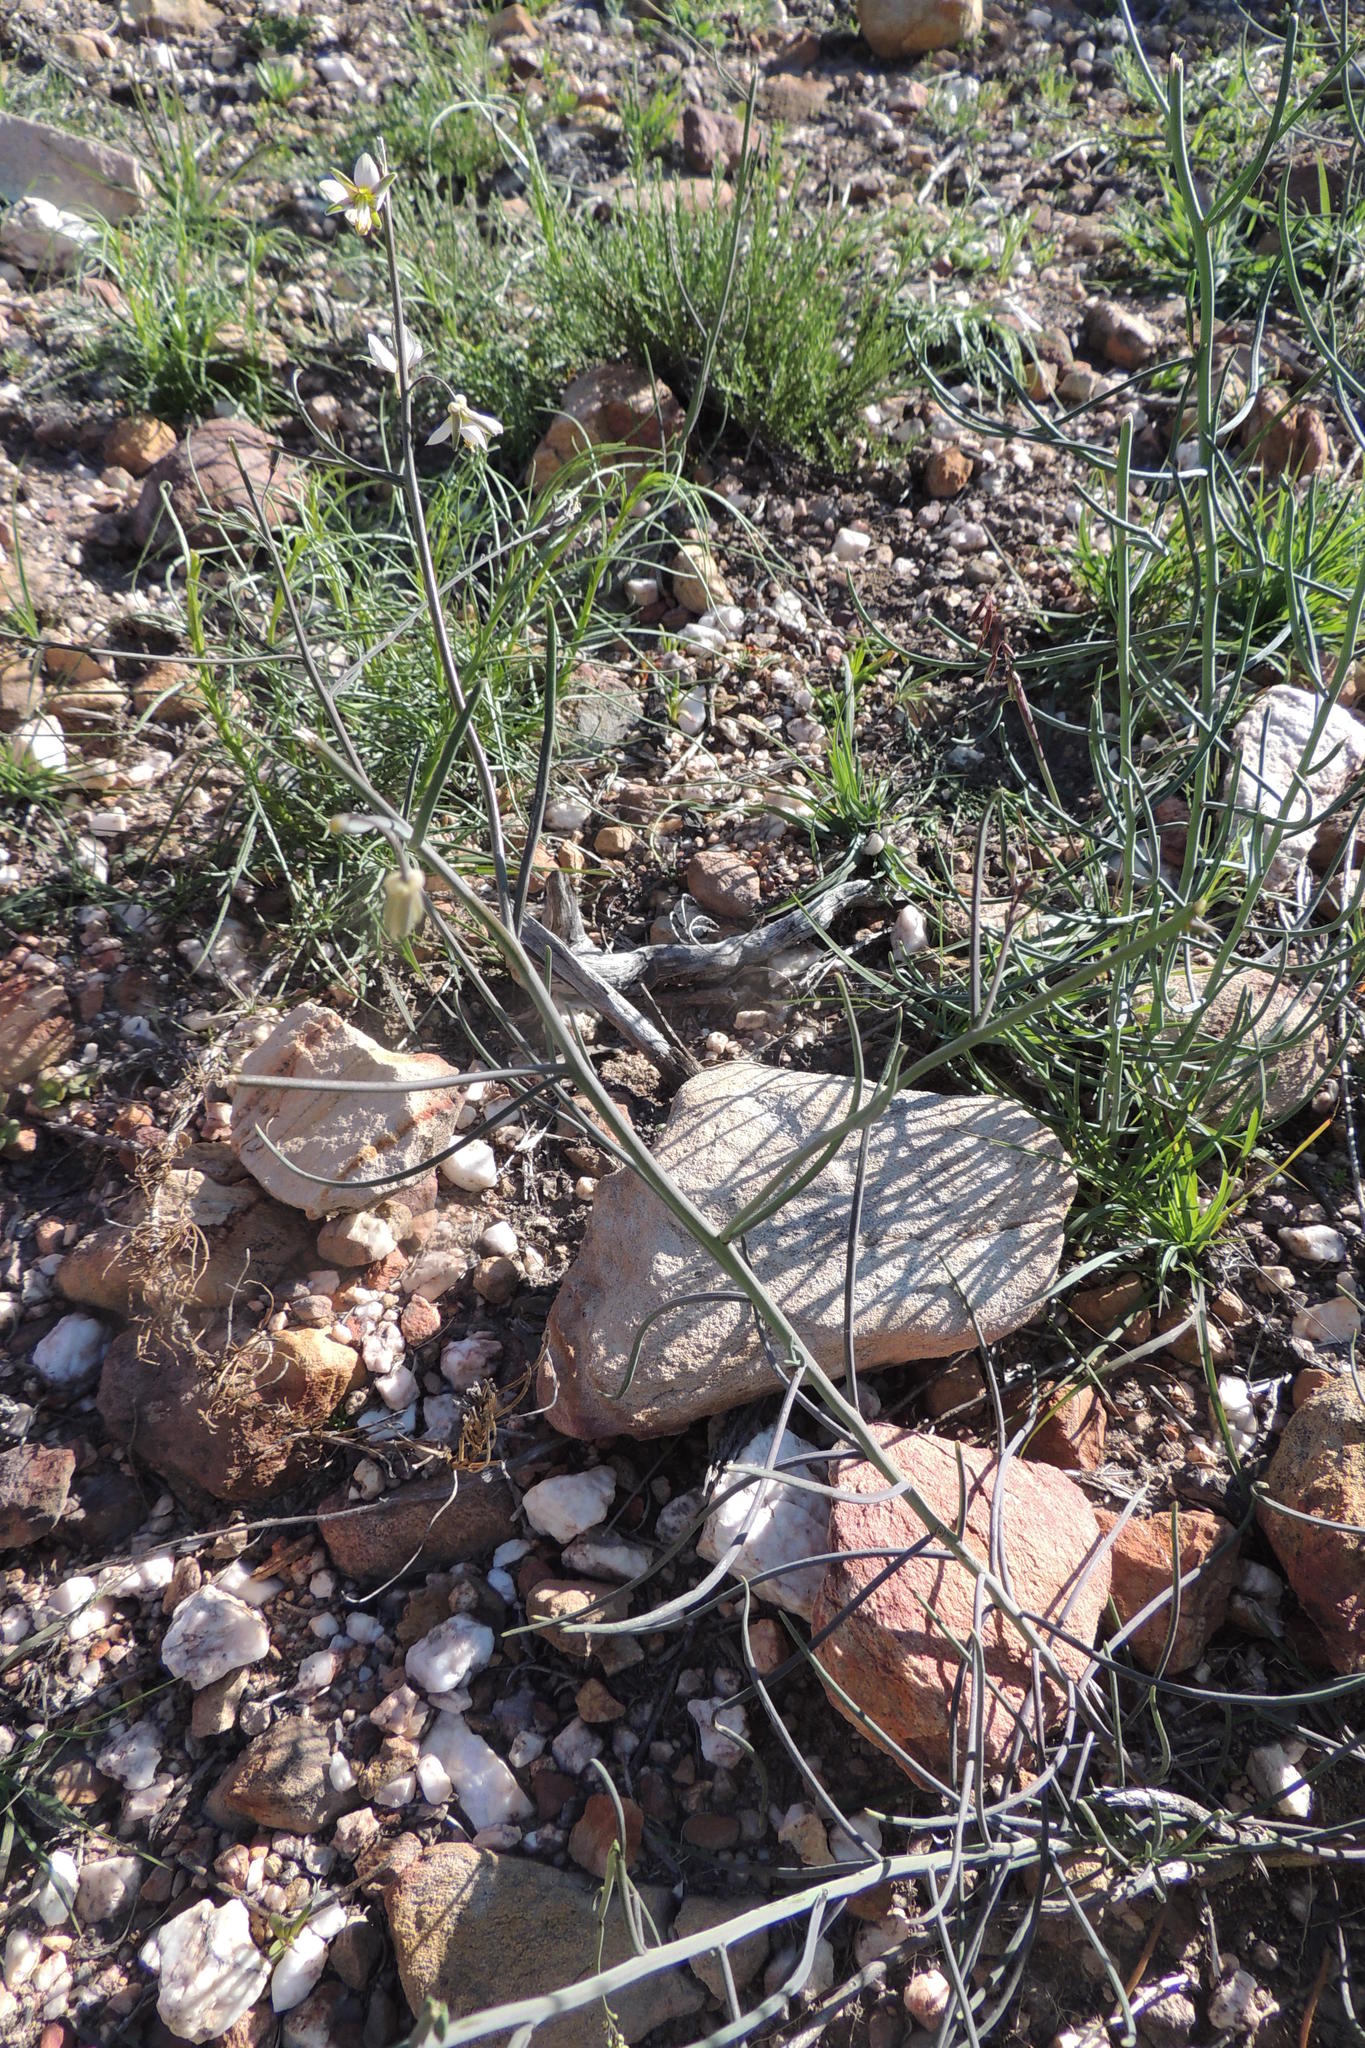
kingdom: Plantae
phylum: Tracheophyta
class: Magnoliopsida
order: Brassicales
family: Brassicaceae
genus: Heliophila
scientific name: Heliophila cornuta
